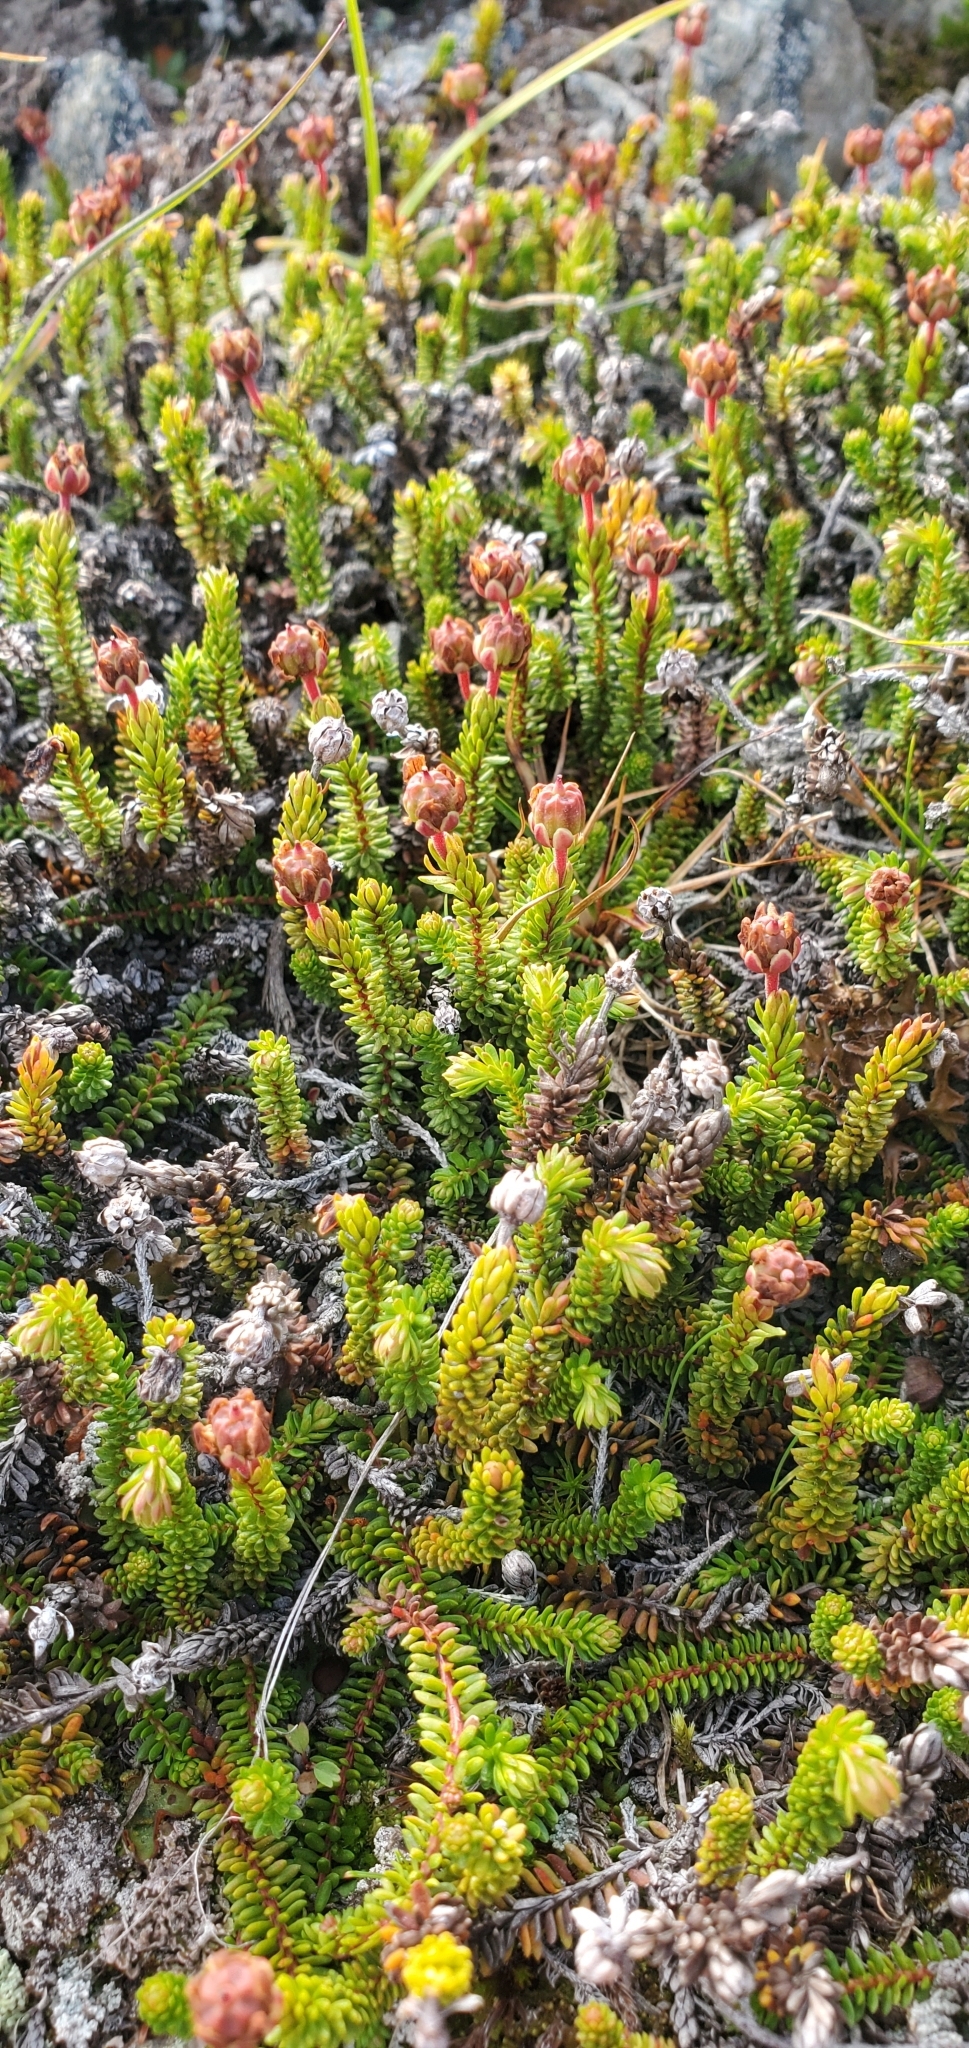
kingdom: Plantae
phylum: Tracheophyta
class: Magnoliopsida
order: Ericales
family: Ericaceae
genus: Harrimanella
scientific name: Harrimanella stelleriana
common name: Alaska bell heather
